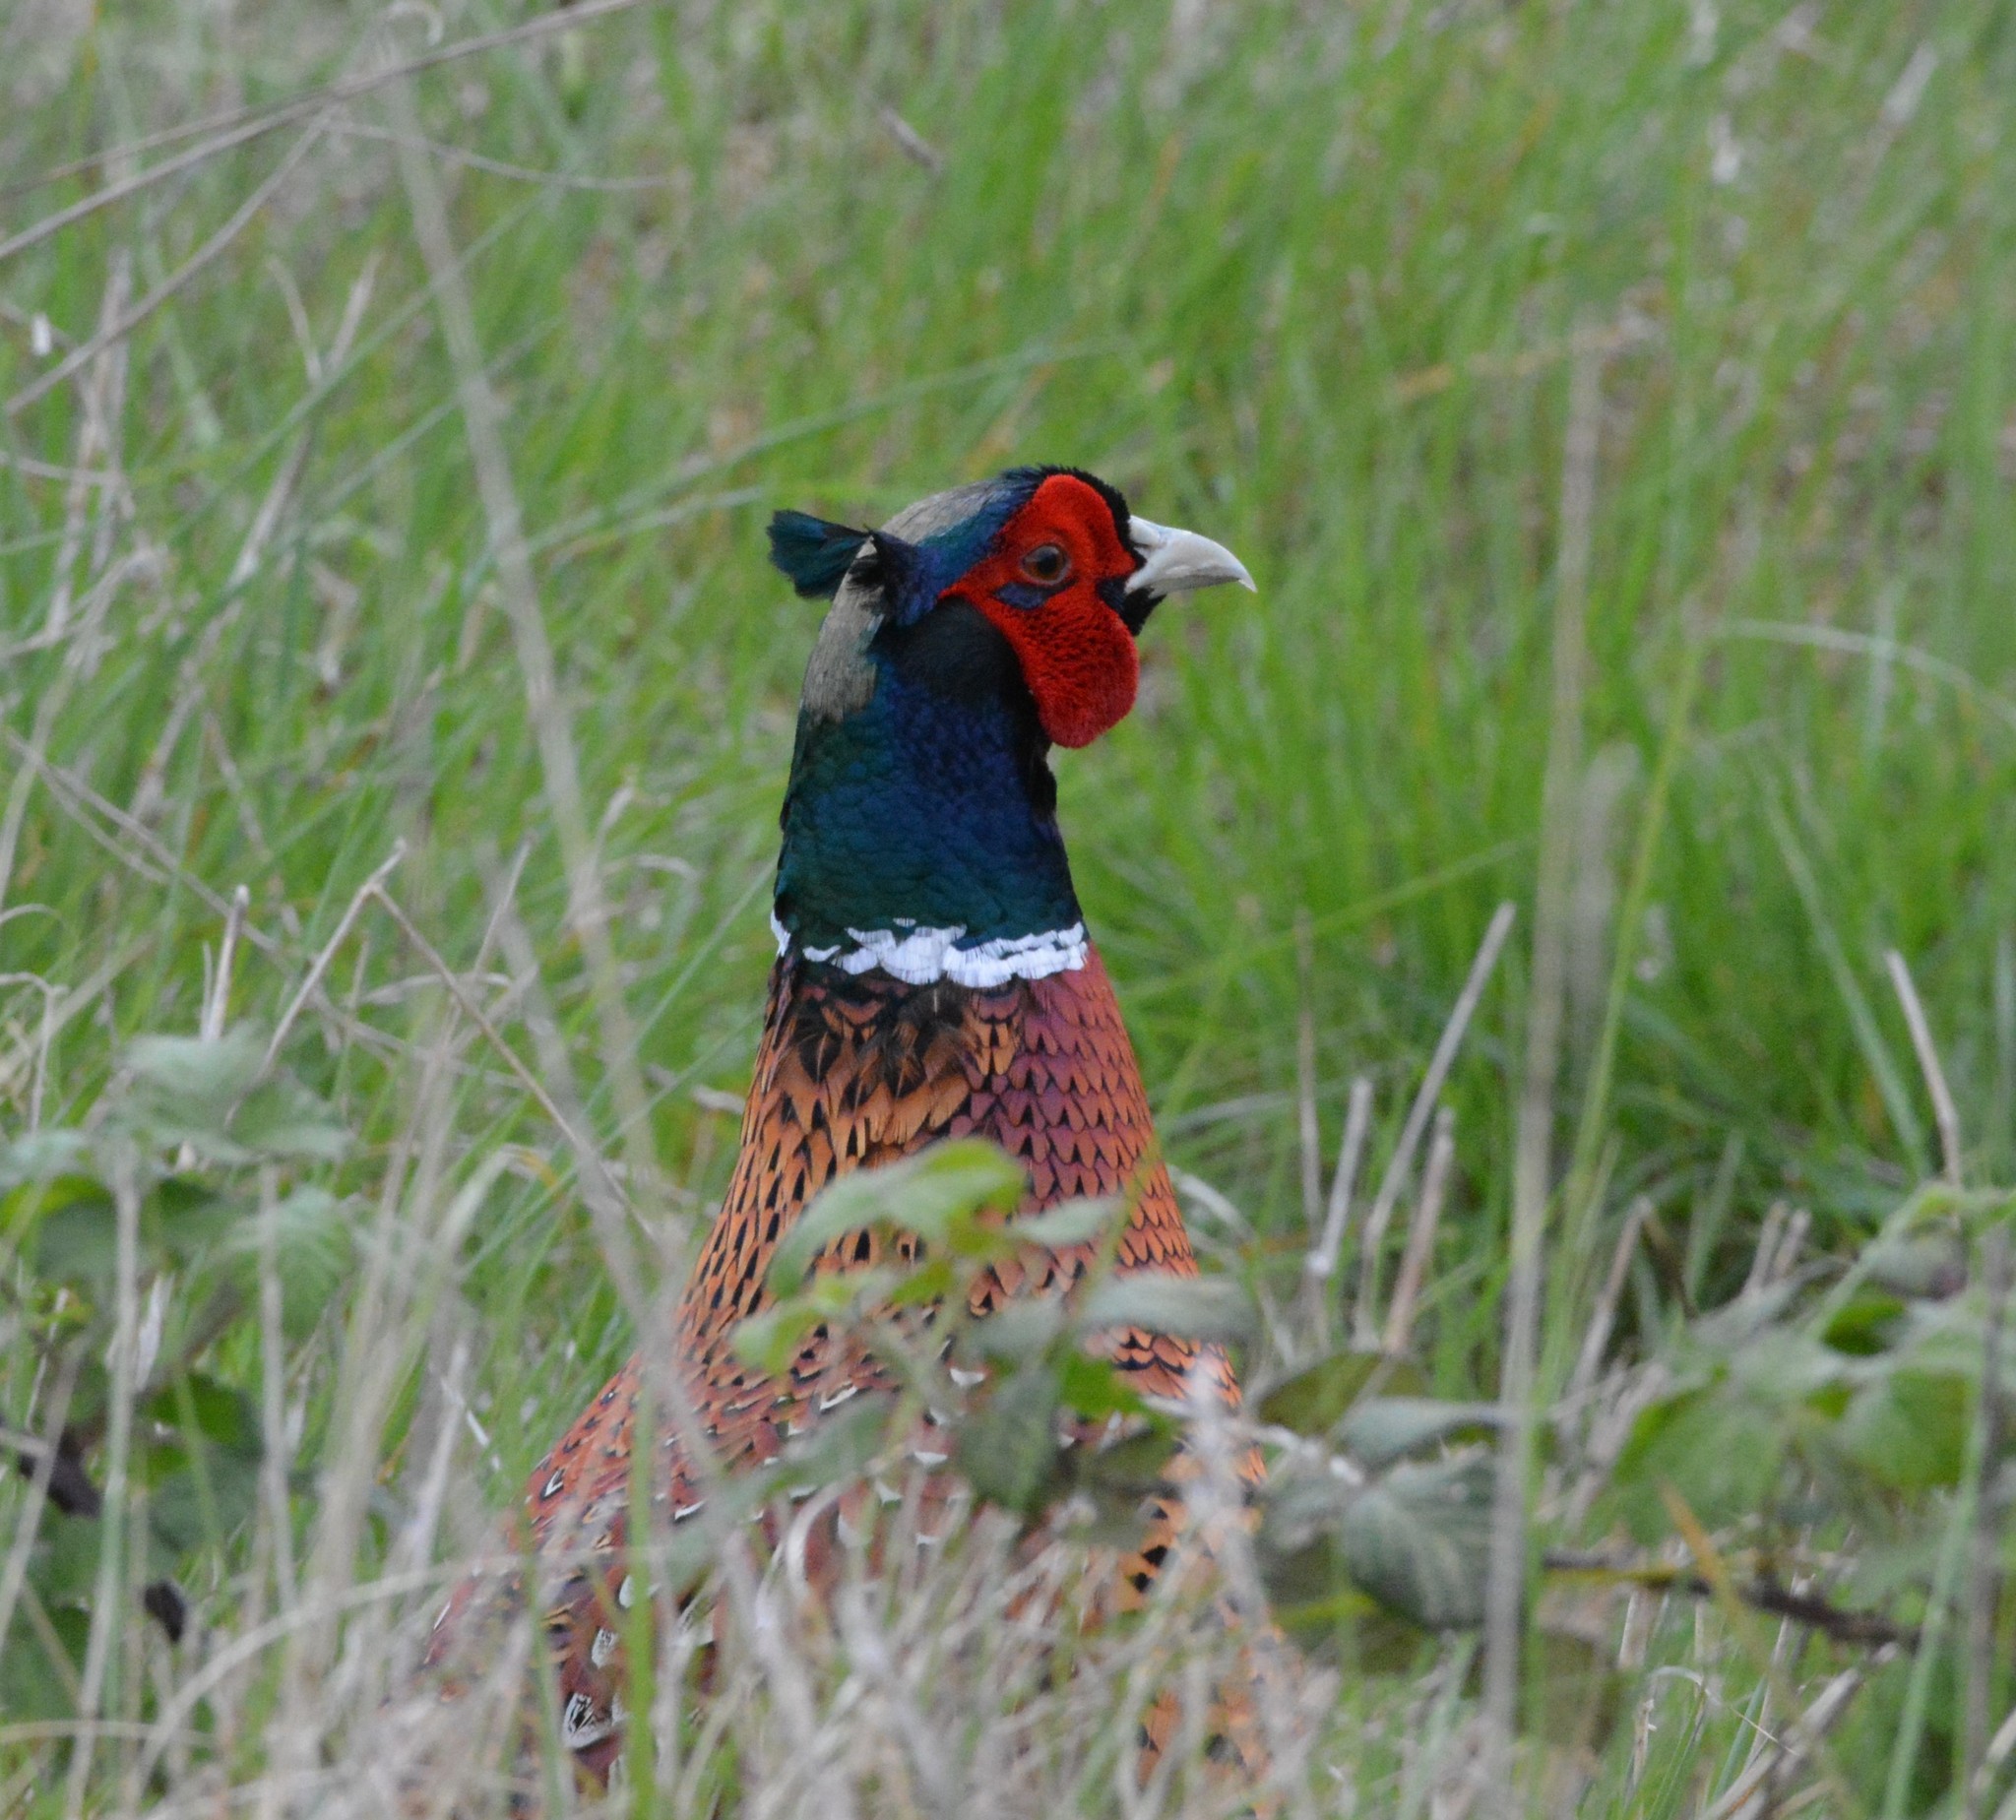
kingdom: Animalia
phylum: Chordata
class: Aves
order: Galliformes
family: Phasianidae
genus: Phasianus
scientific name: Phasianus colchicus
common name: Common pheasant
